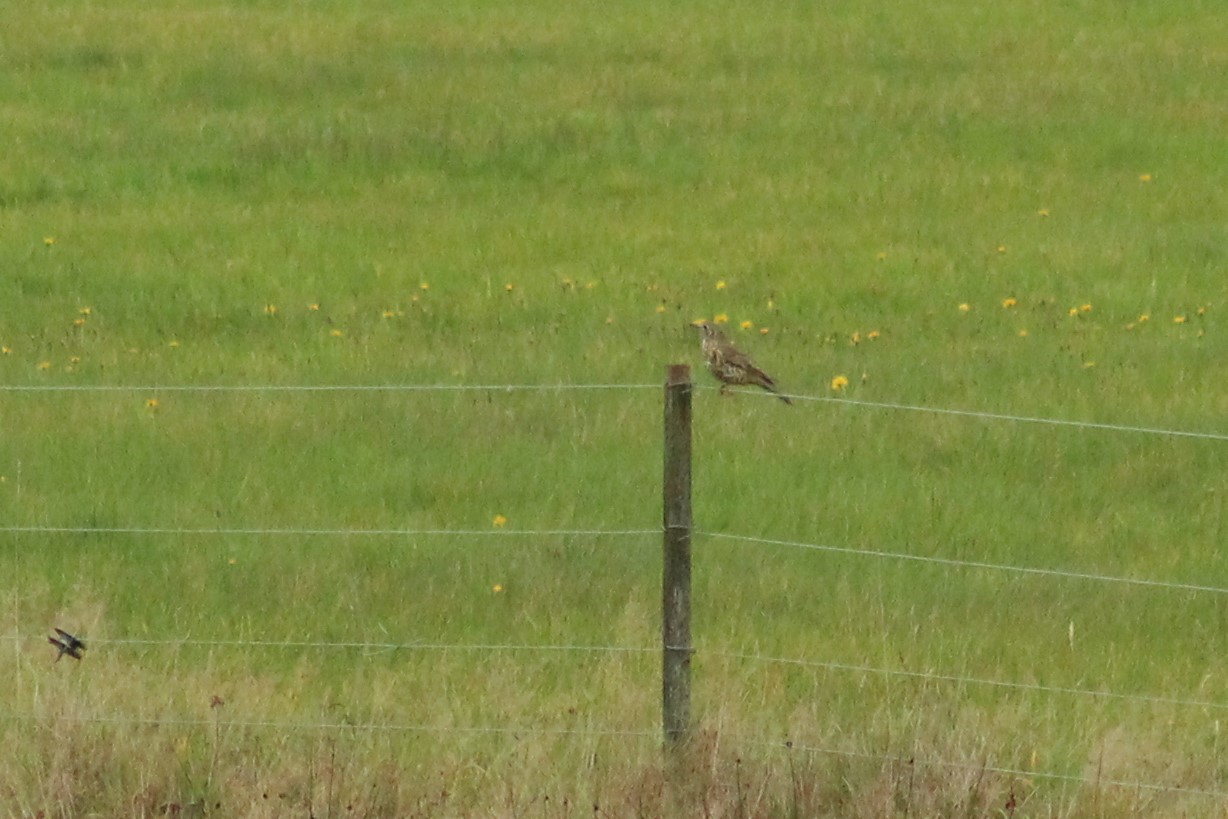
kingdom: Animalia
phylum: Chordata
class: Aves
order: Passeriformes
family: Turdidae
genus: Turdus
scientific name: Turdus viscivorus
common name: Mistle thrush
